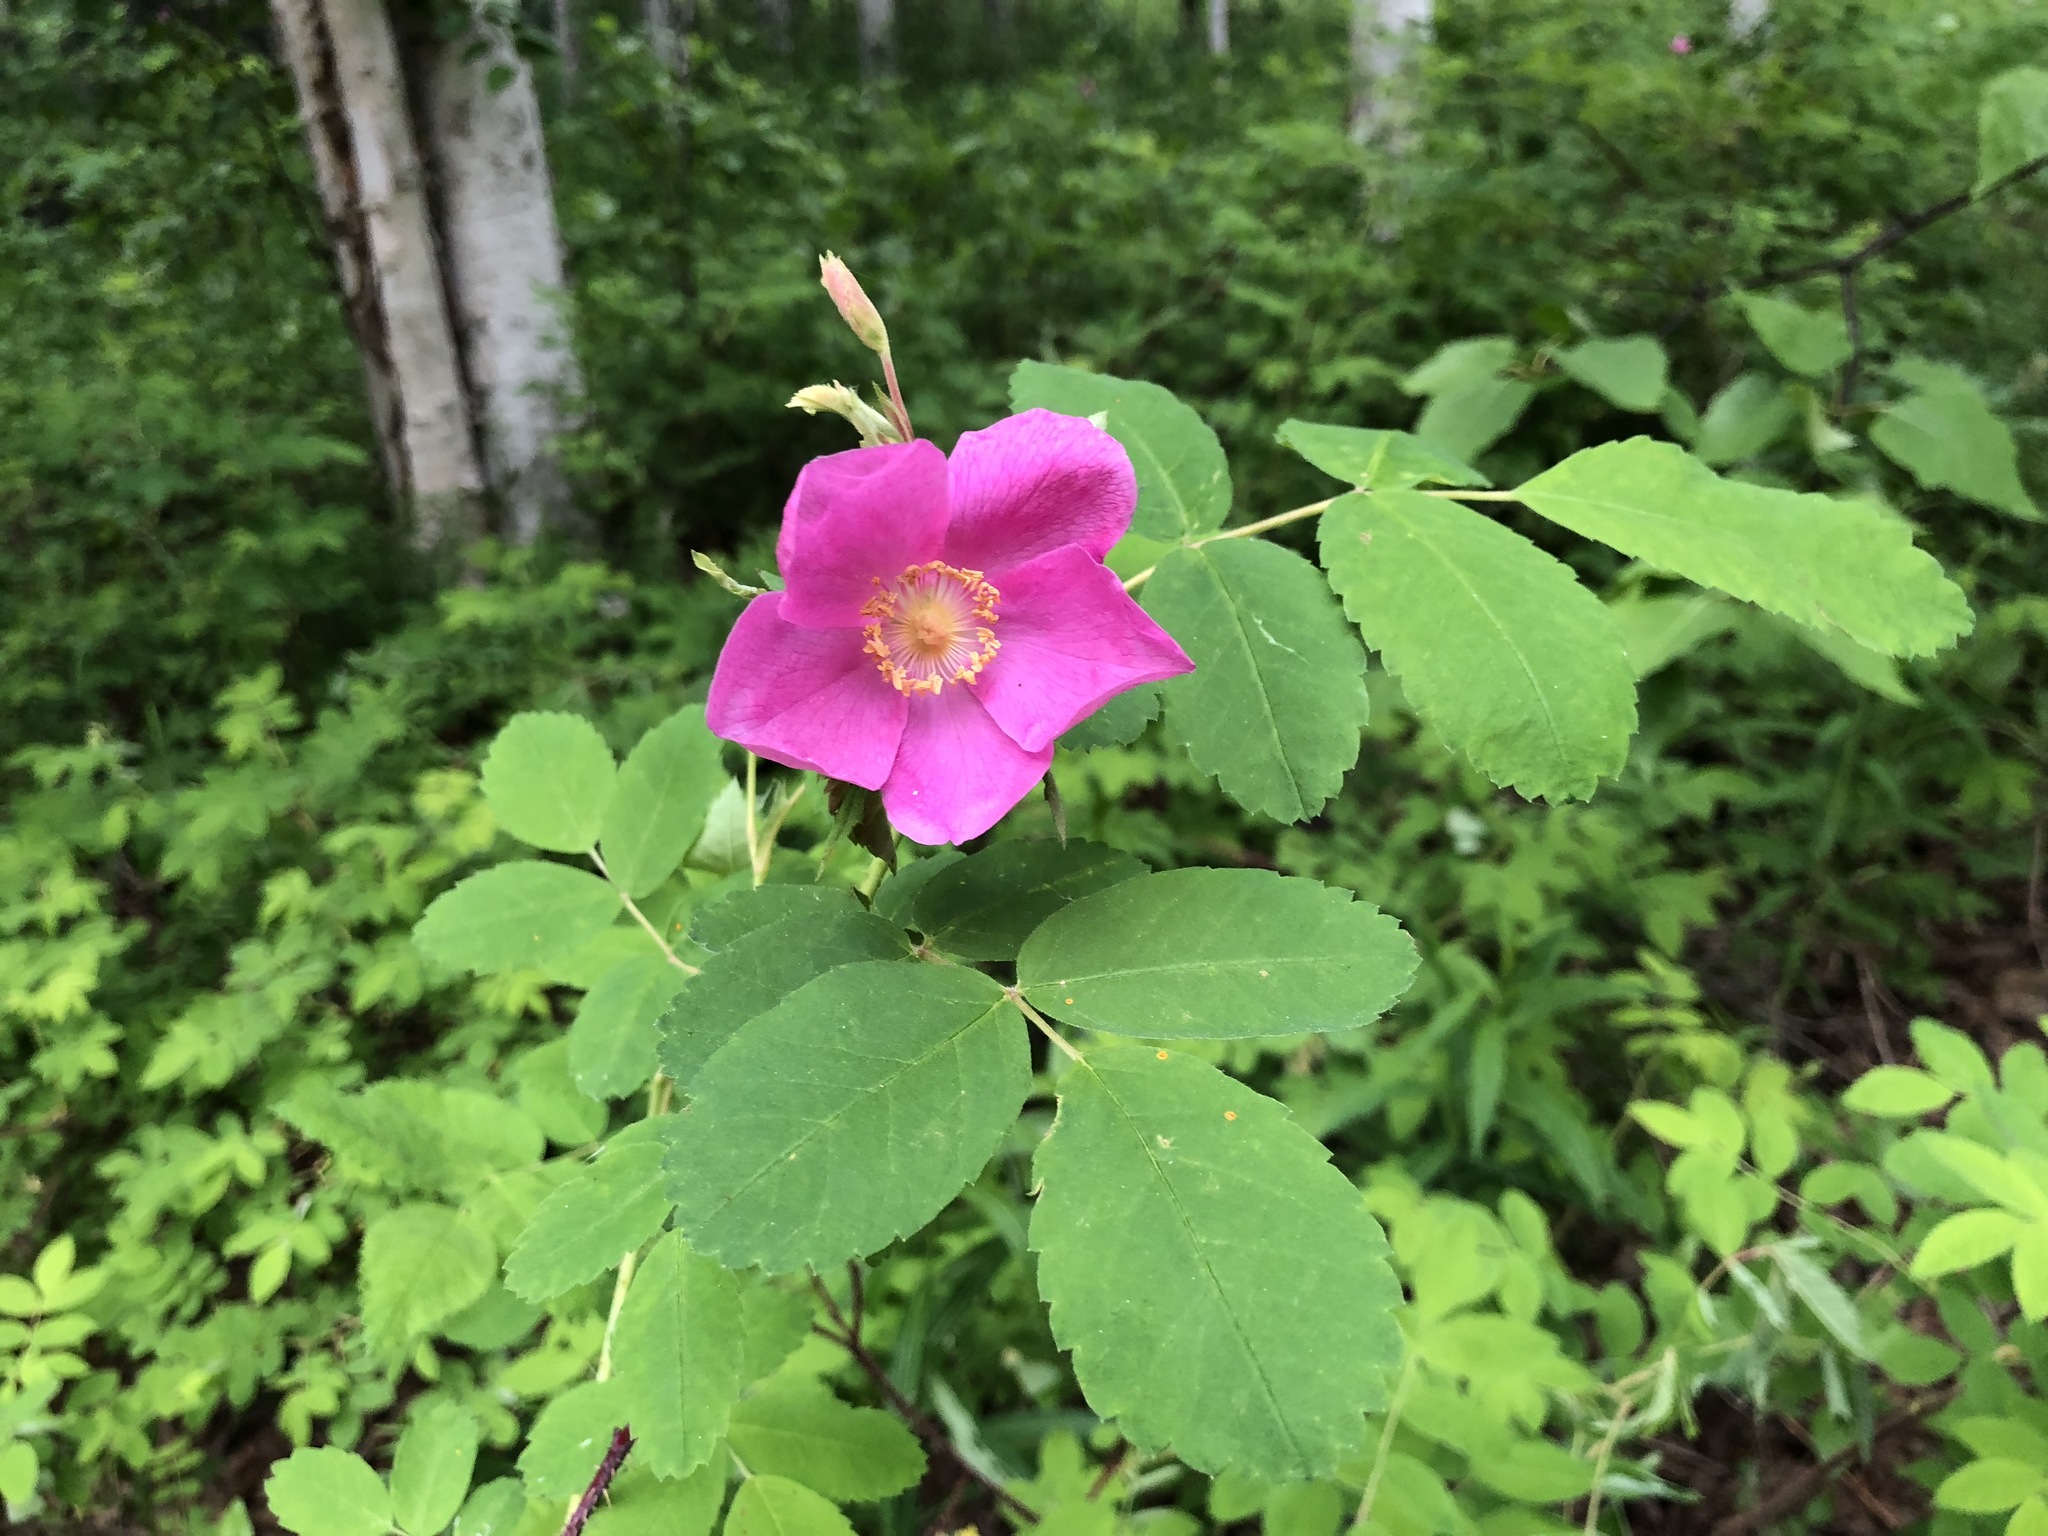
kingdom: Plantae
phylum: Tracheophyta
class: Magnoliopsida
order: Rosales
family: Rosaceae
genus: Rosa
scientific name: Rosa acicularis
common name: Prickly rose
